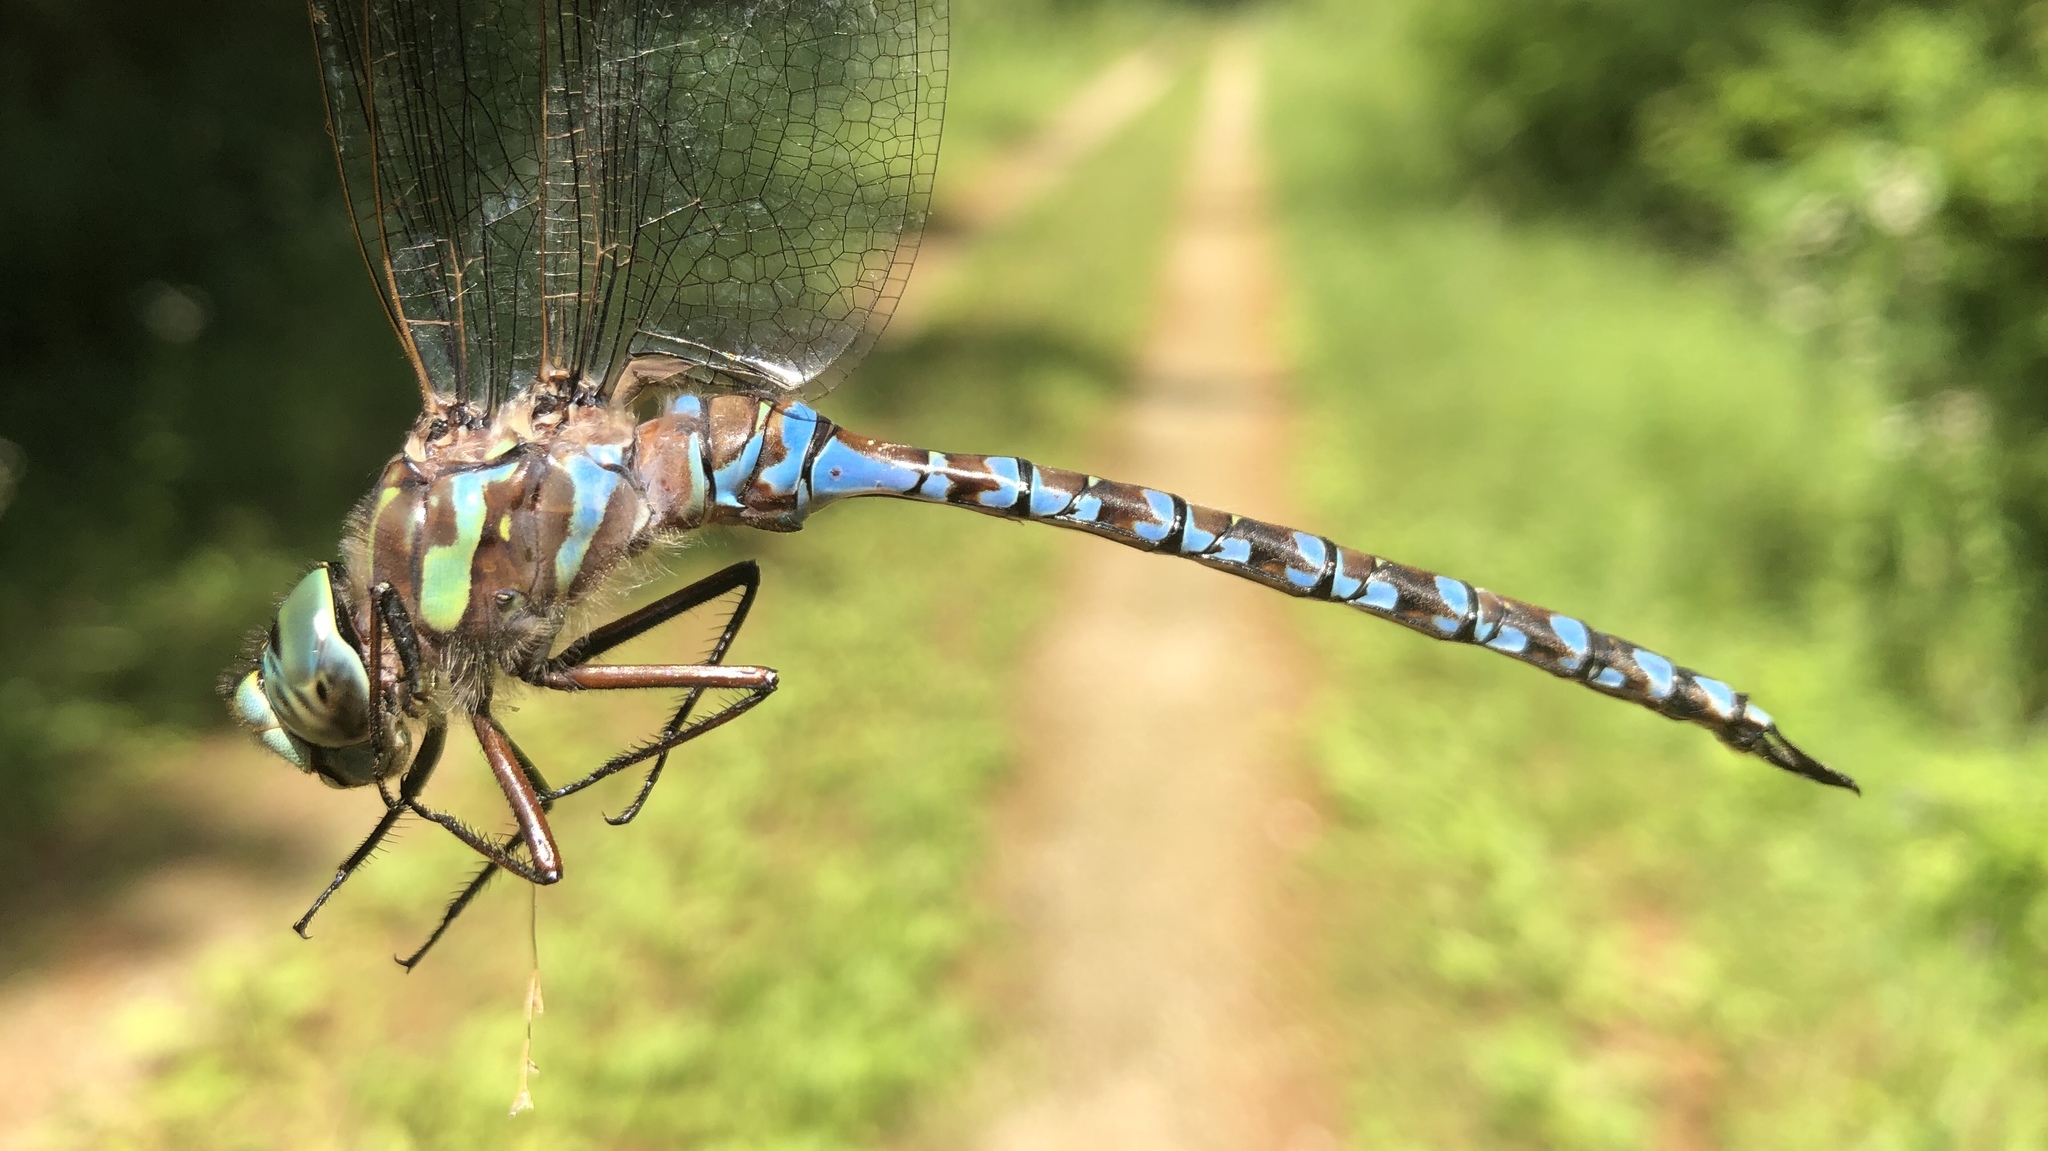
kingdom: Animalia
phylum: Arthropoda
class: Insecta
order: Odonata
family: Aeshnidae
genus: Aeshna
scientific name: Aeshna canadensis
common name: Canada darner
